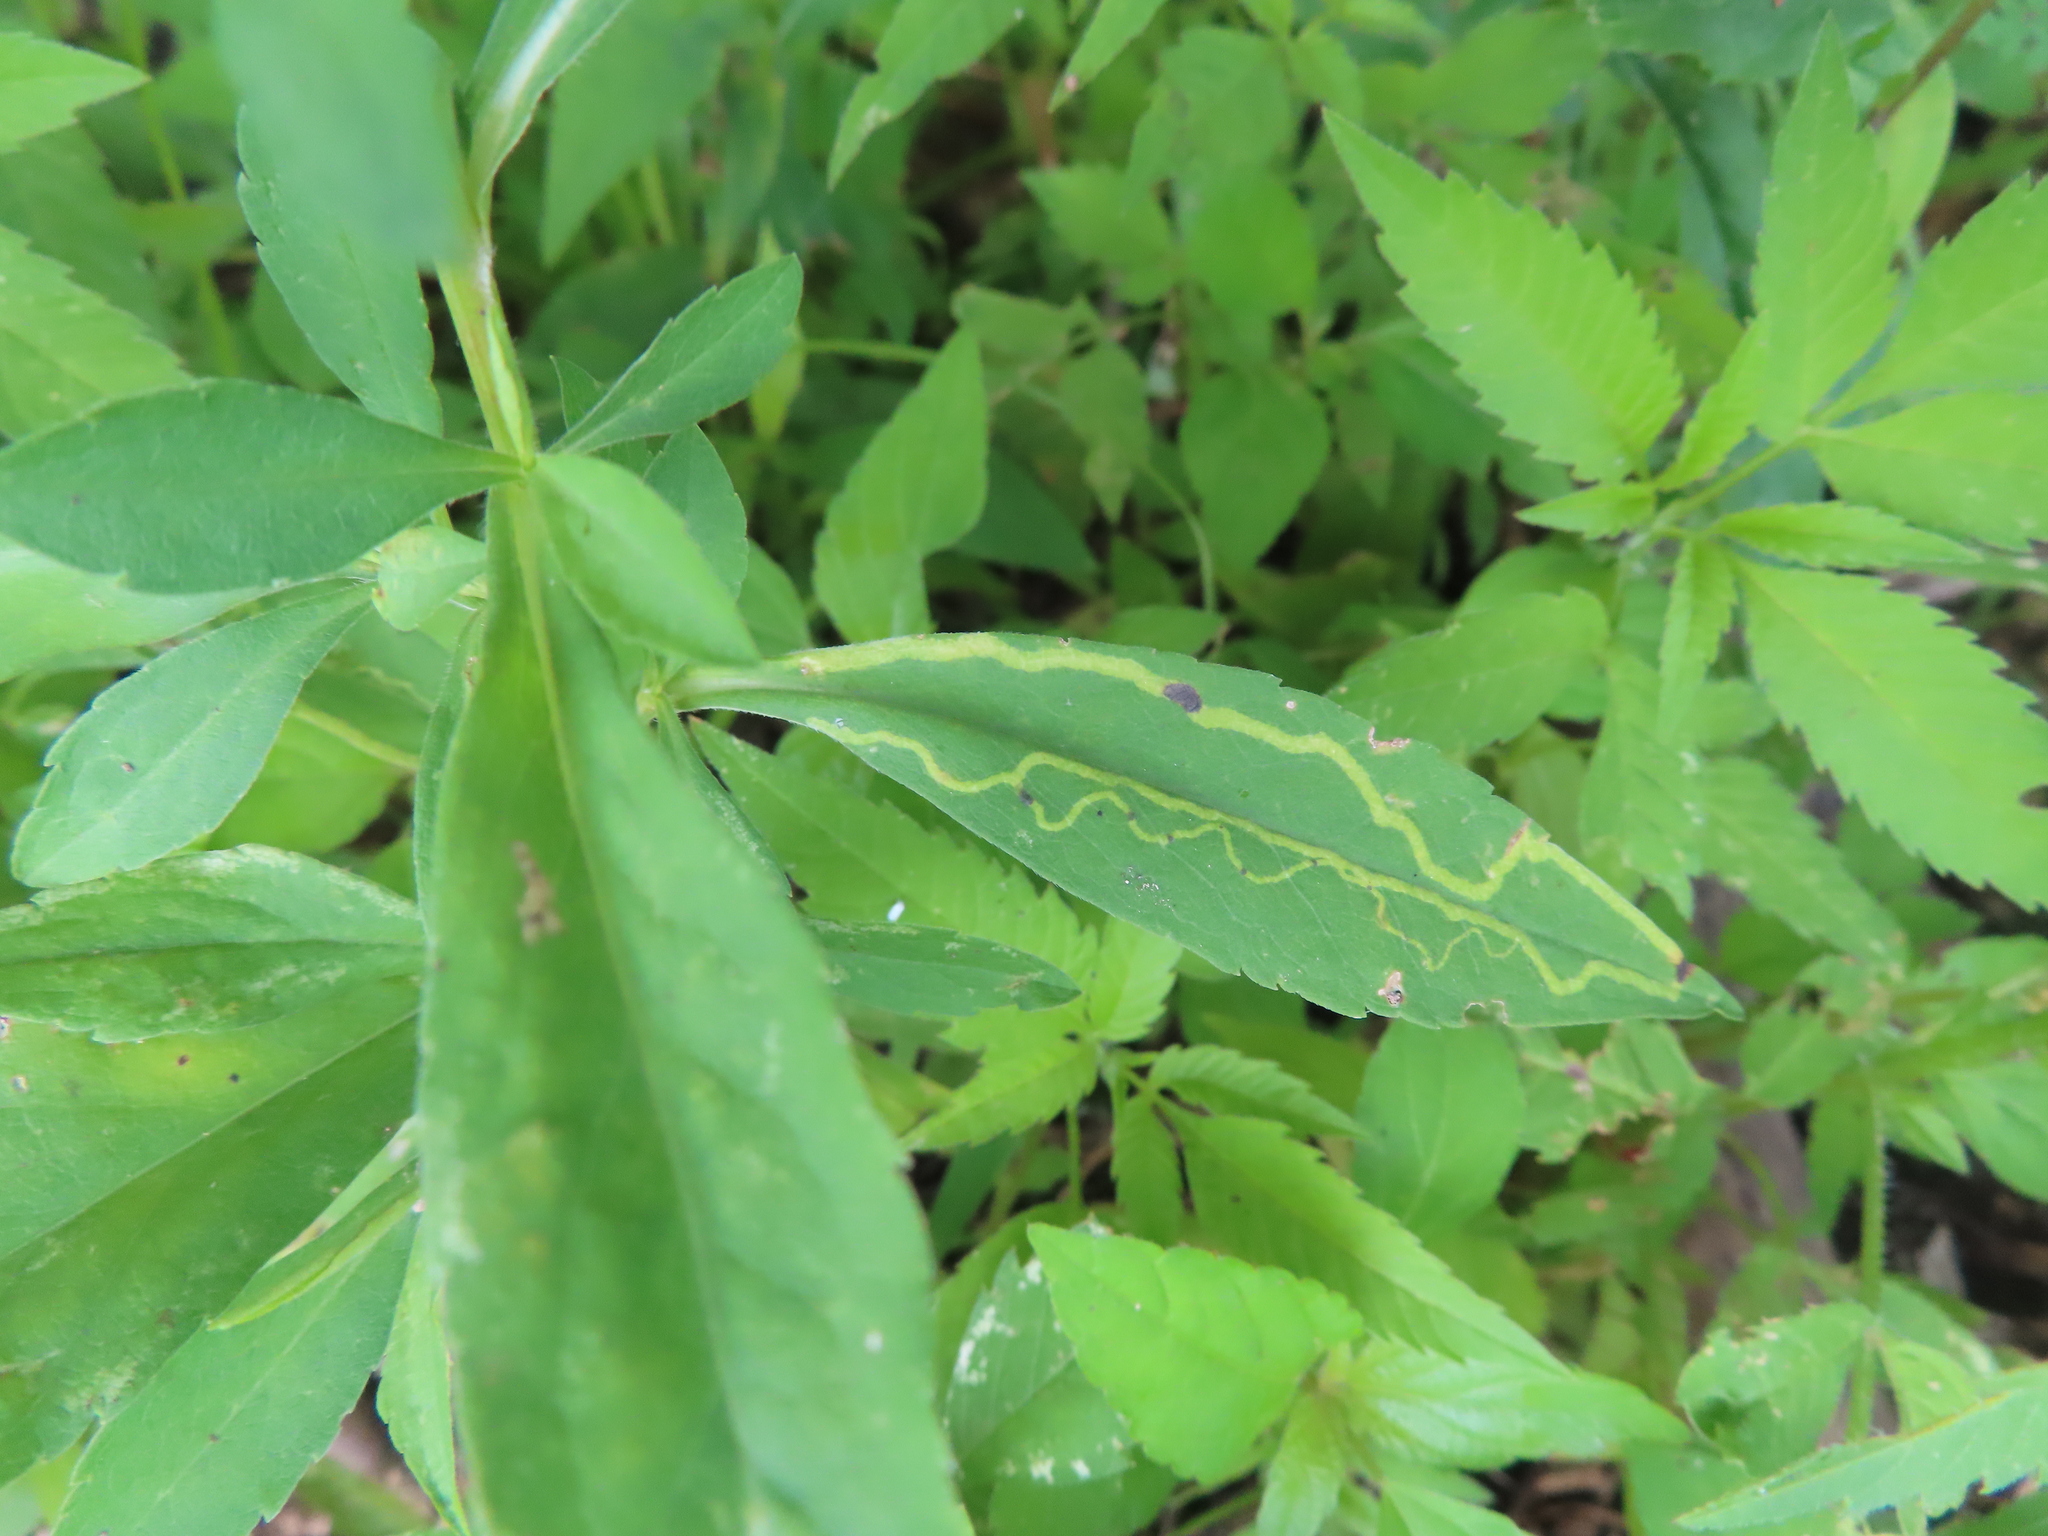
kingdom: Animalia
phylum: Arthropoda
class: Insecta
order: Diptera
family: Agromyzidae
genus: Ophiomyia
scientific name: Ophiomyia parda
